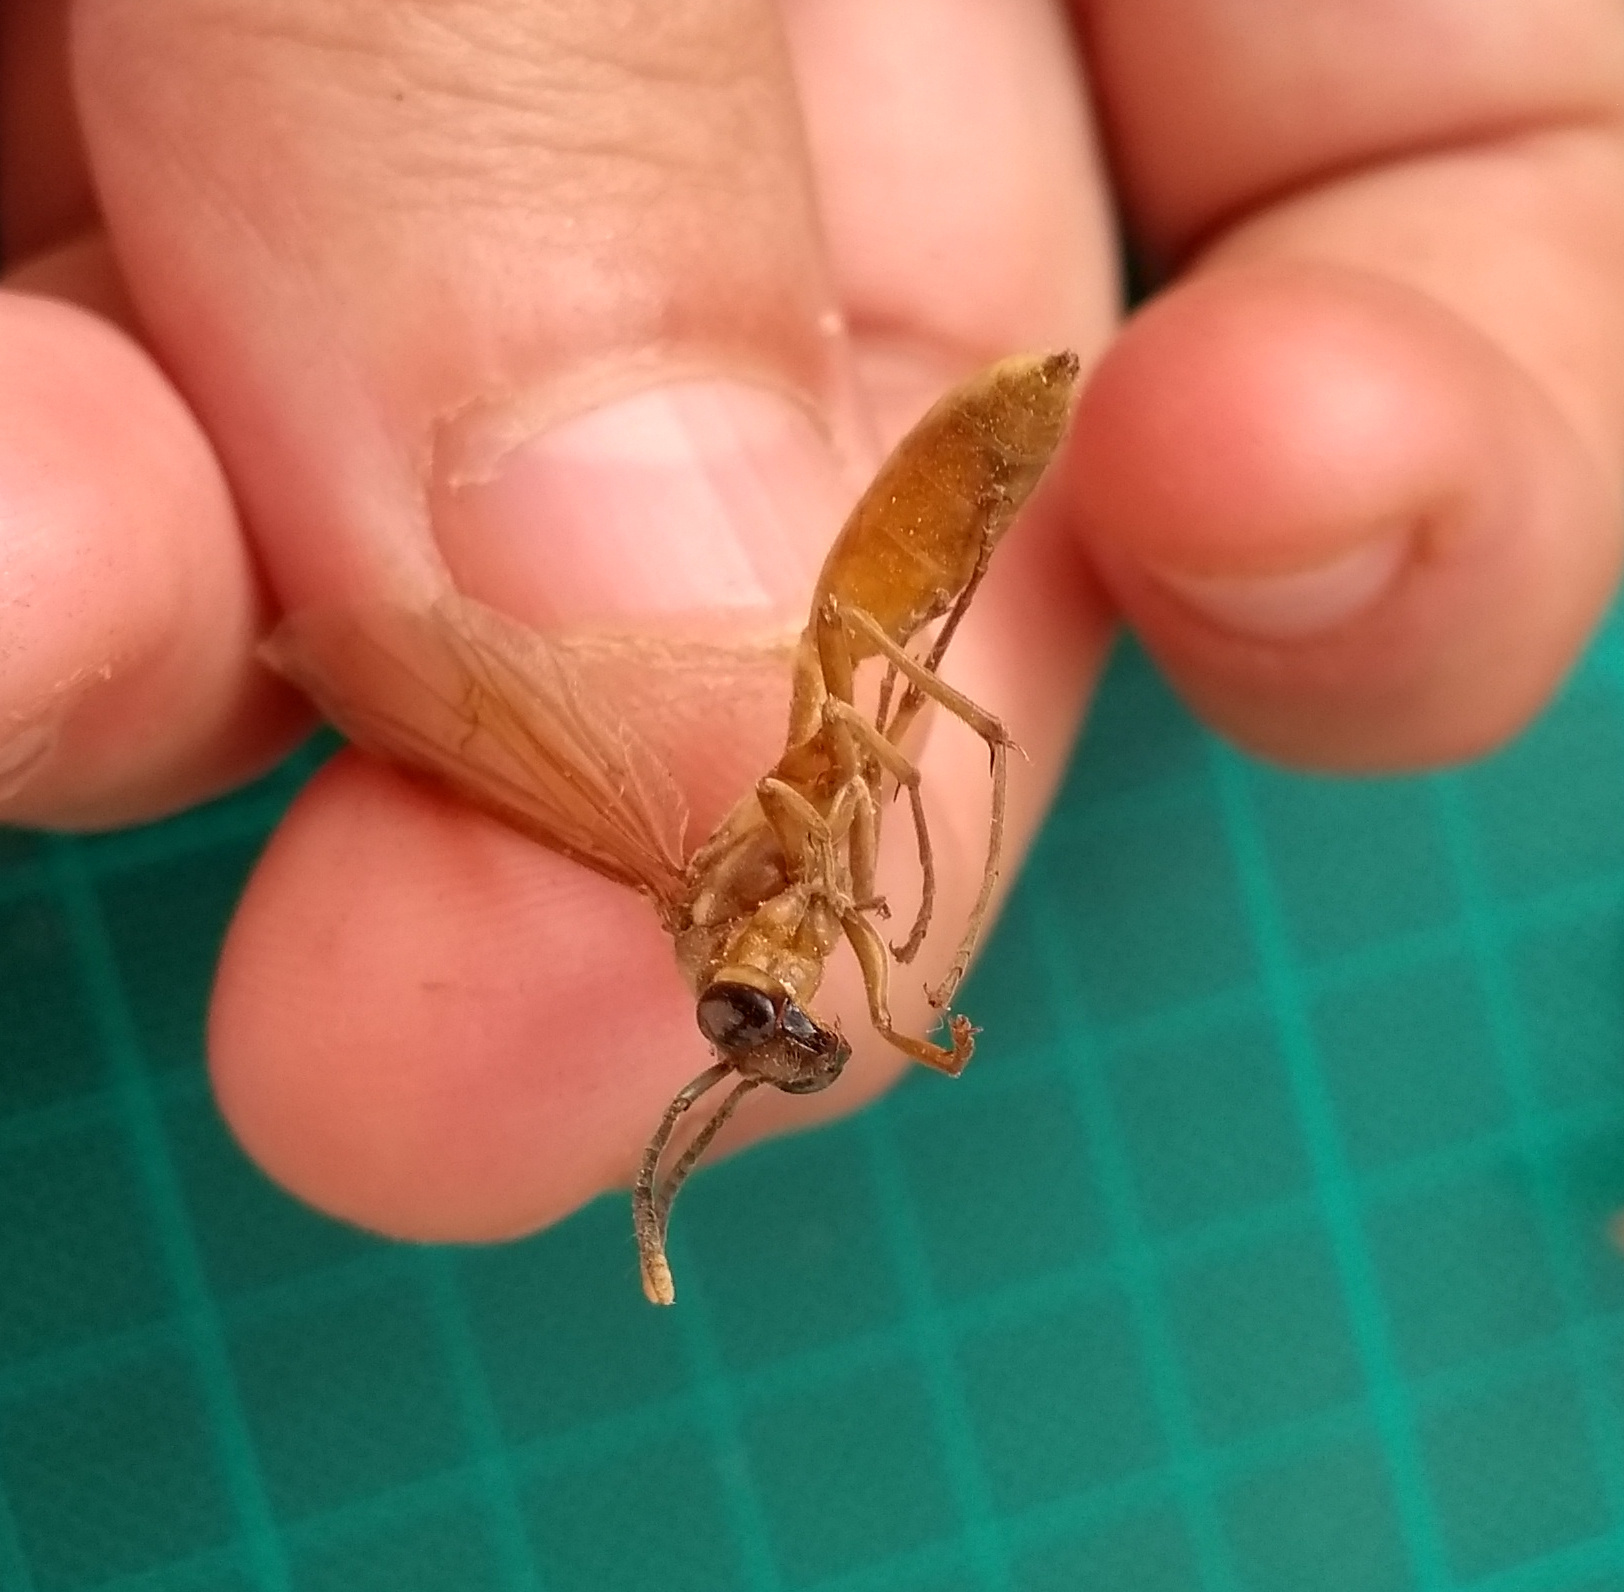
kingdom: Animalia
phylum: Arthropoda
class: Insecta
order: Hymenoptera
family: Vespidae
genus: Apoica
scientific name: Apoica pallens
